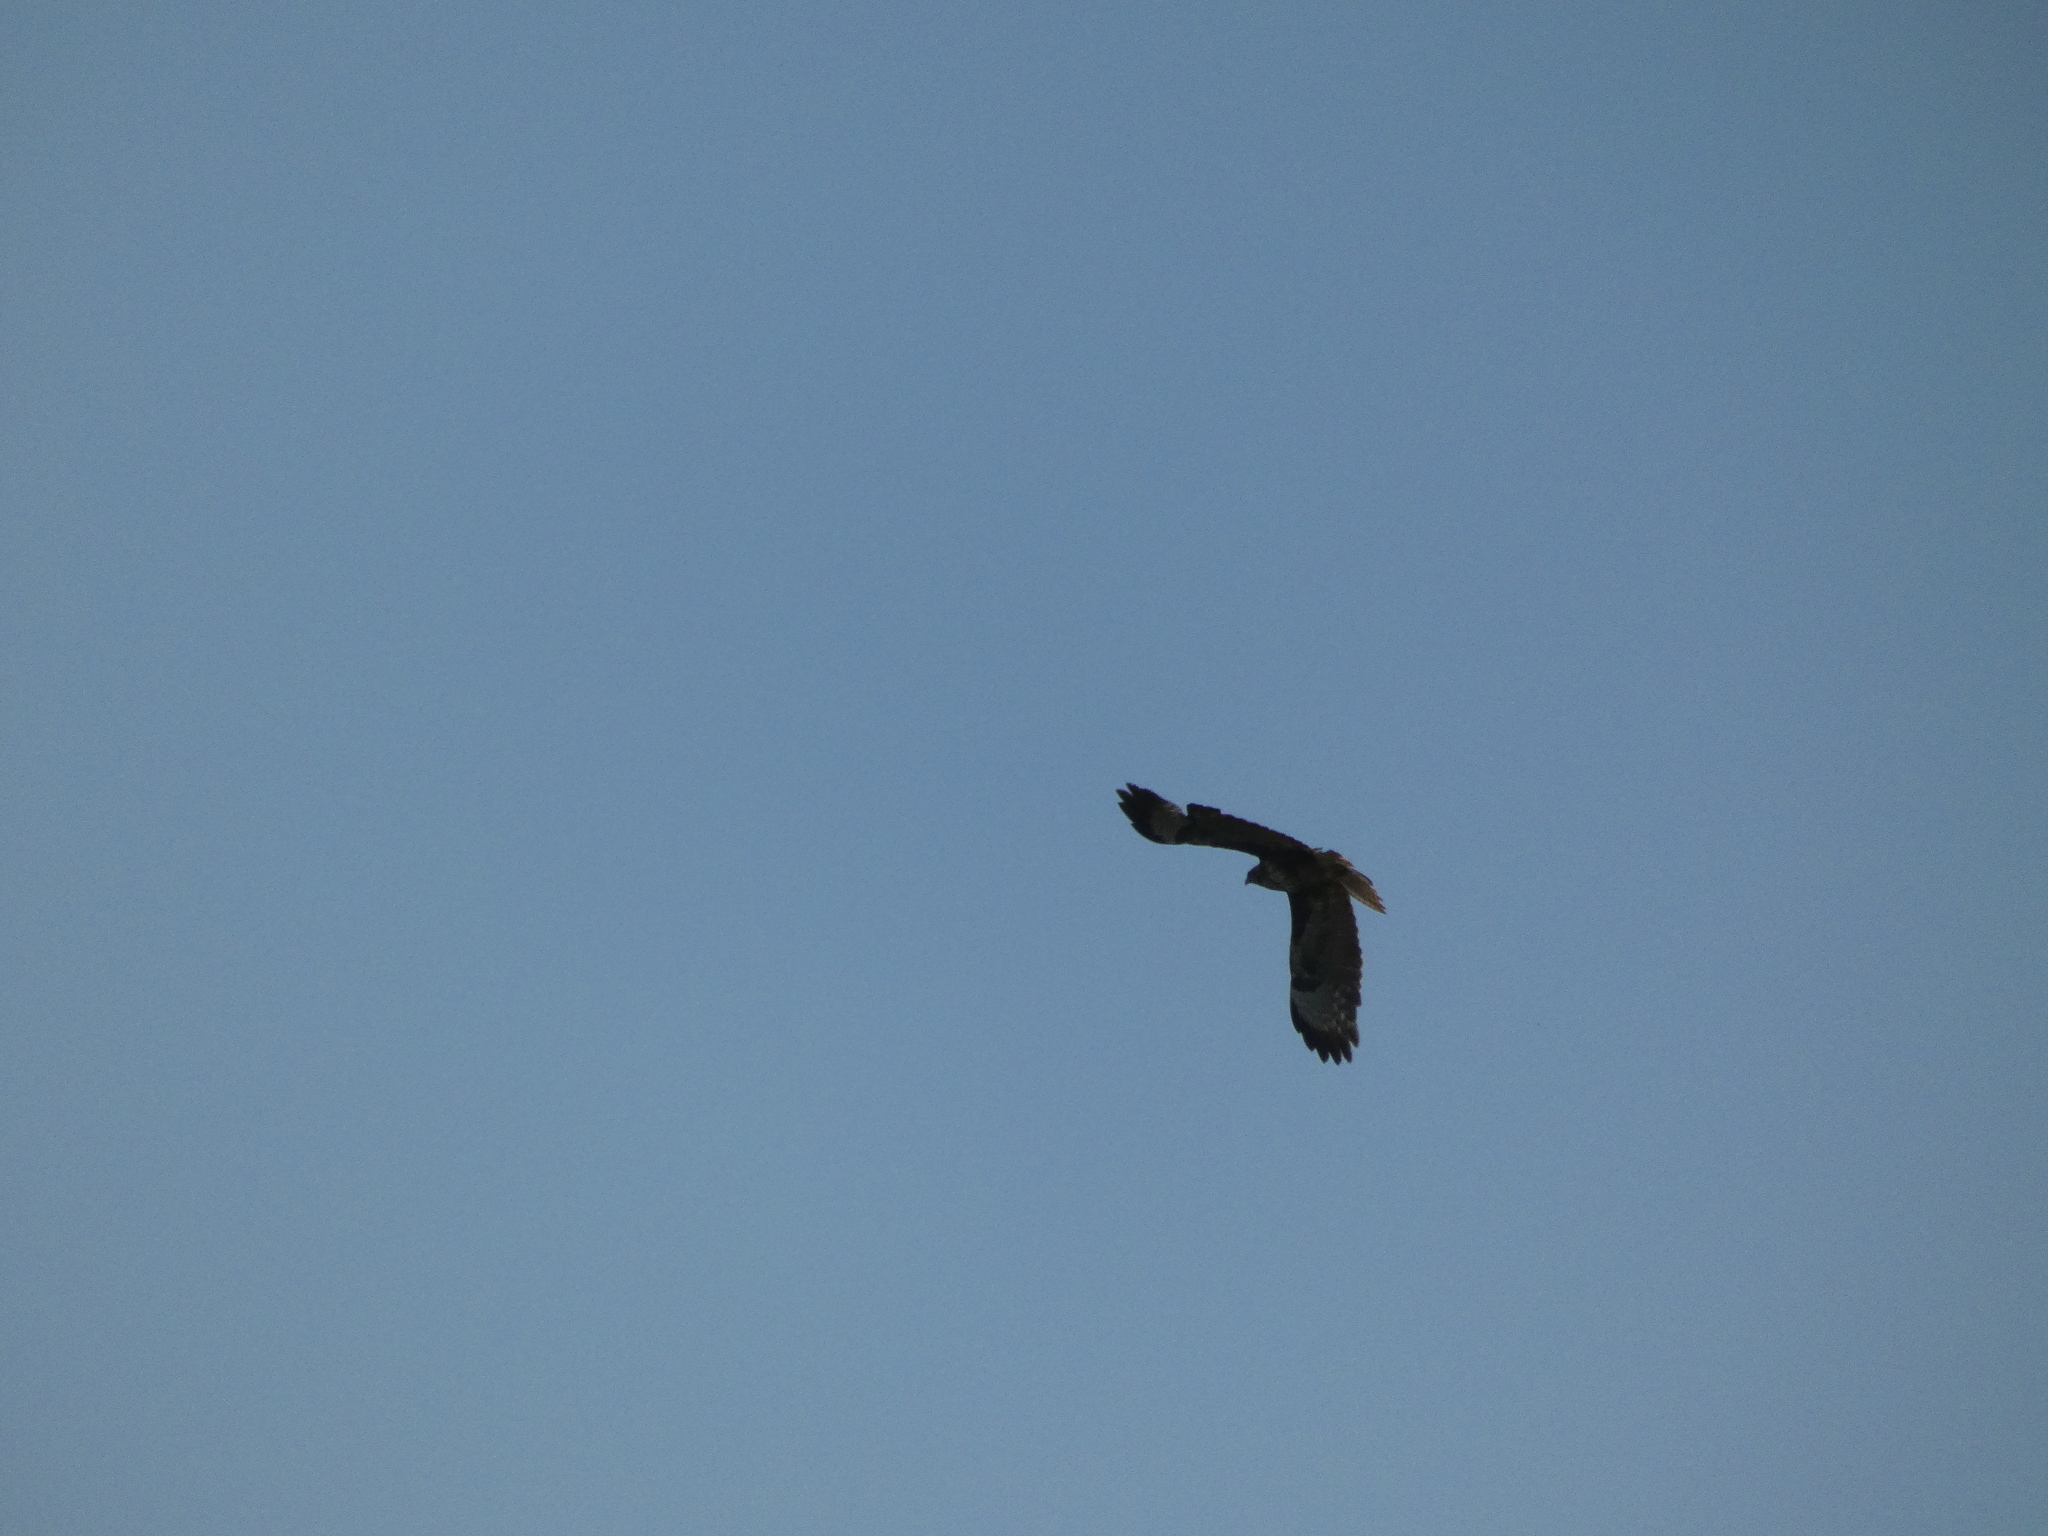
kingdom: Animalia
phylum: Chordata
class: Aves
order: Accipitriformes
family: Accipitridae
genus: Buteo
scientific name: Buteo buteo
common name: Common buzzard
